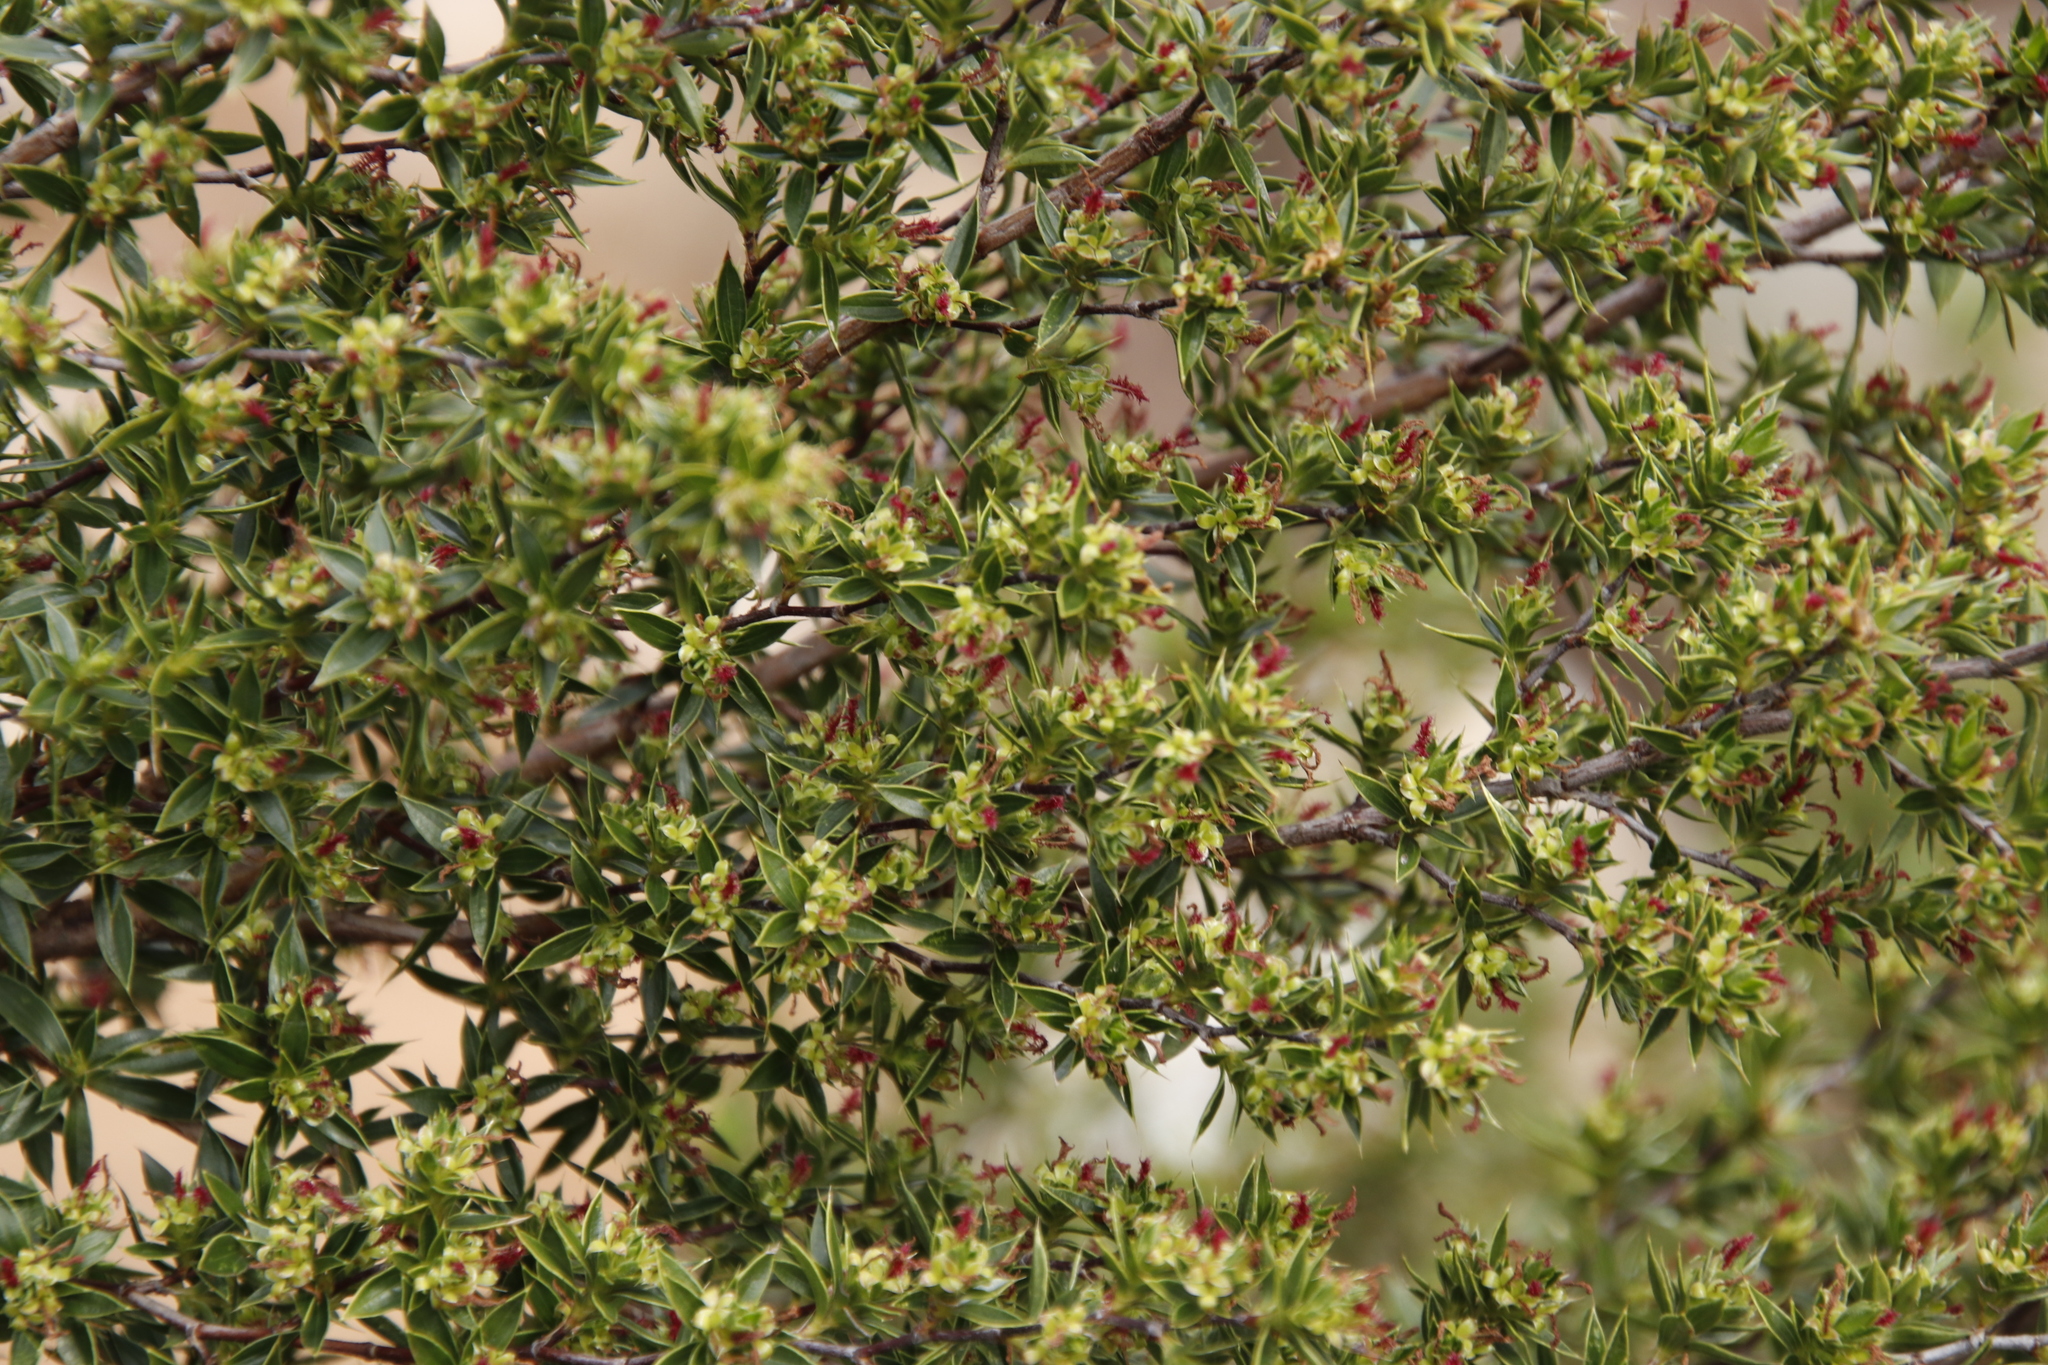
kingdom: Plantae
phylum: Tracheophyta
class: Magnoliopsida
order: Rosales
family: Rosaceae
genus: Cliffortia
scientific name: Cliffortia ruscifolia
